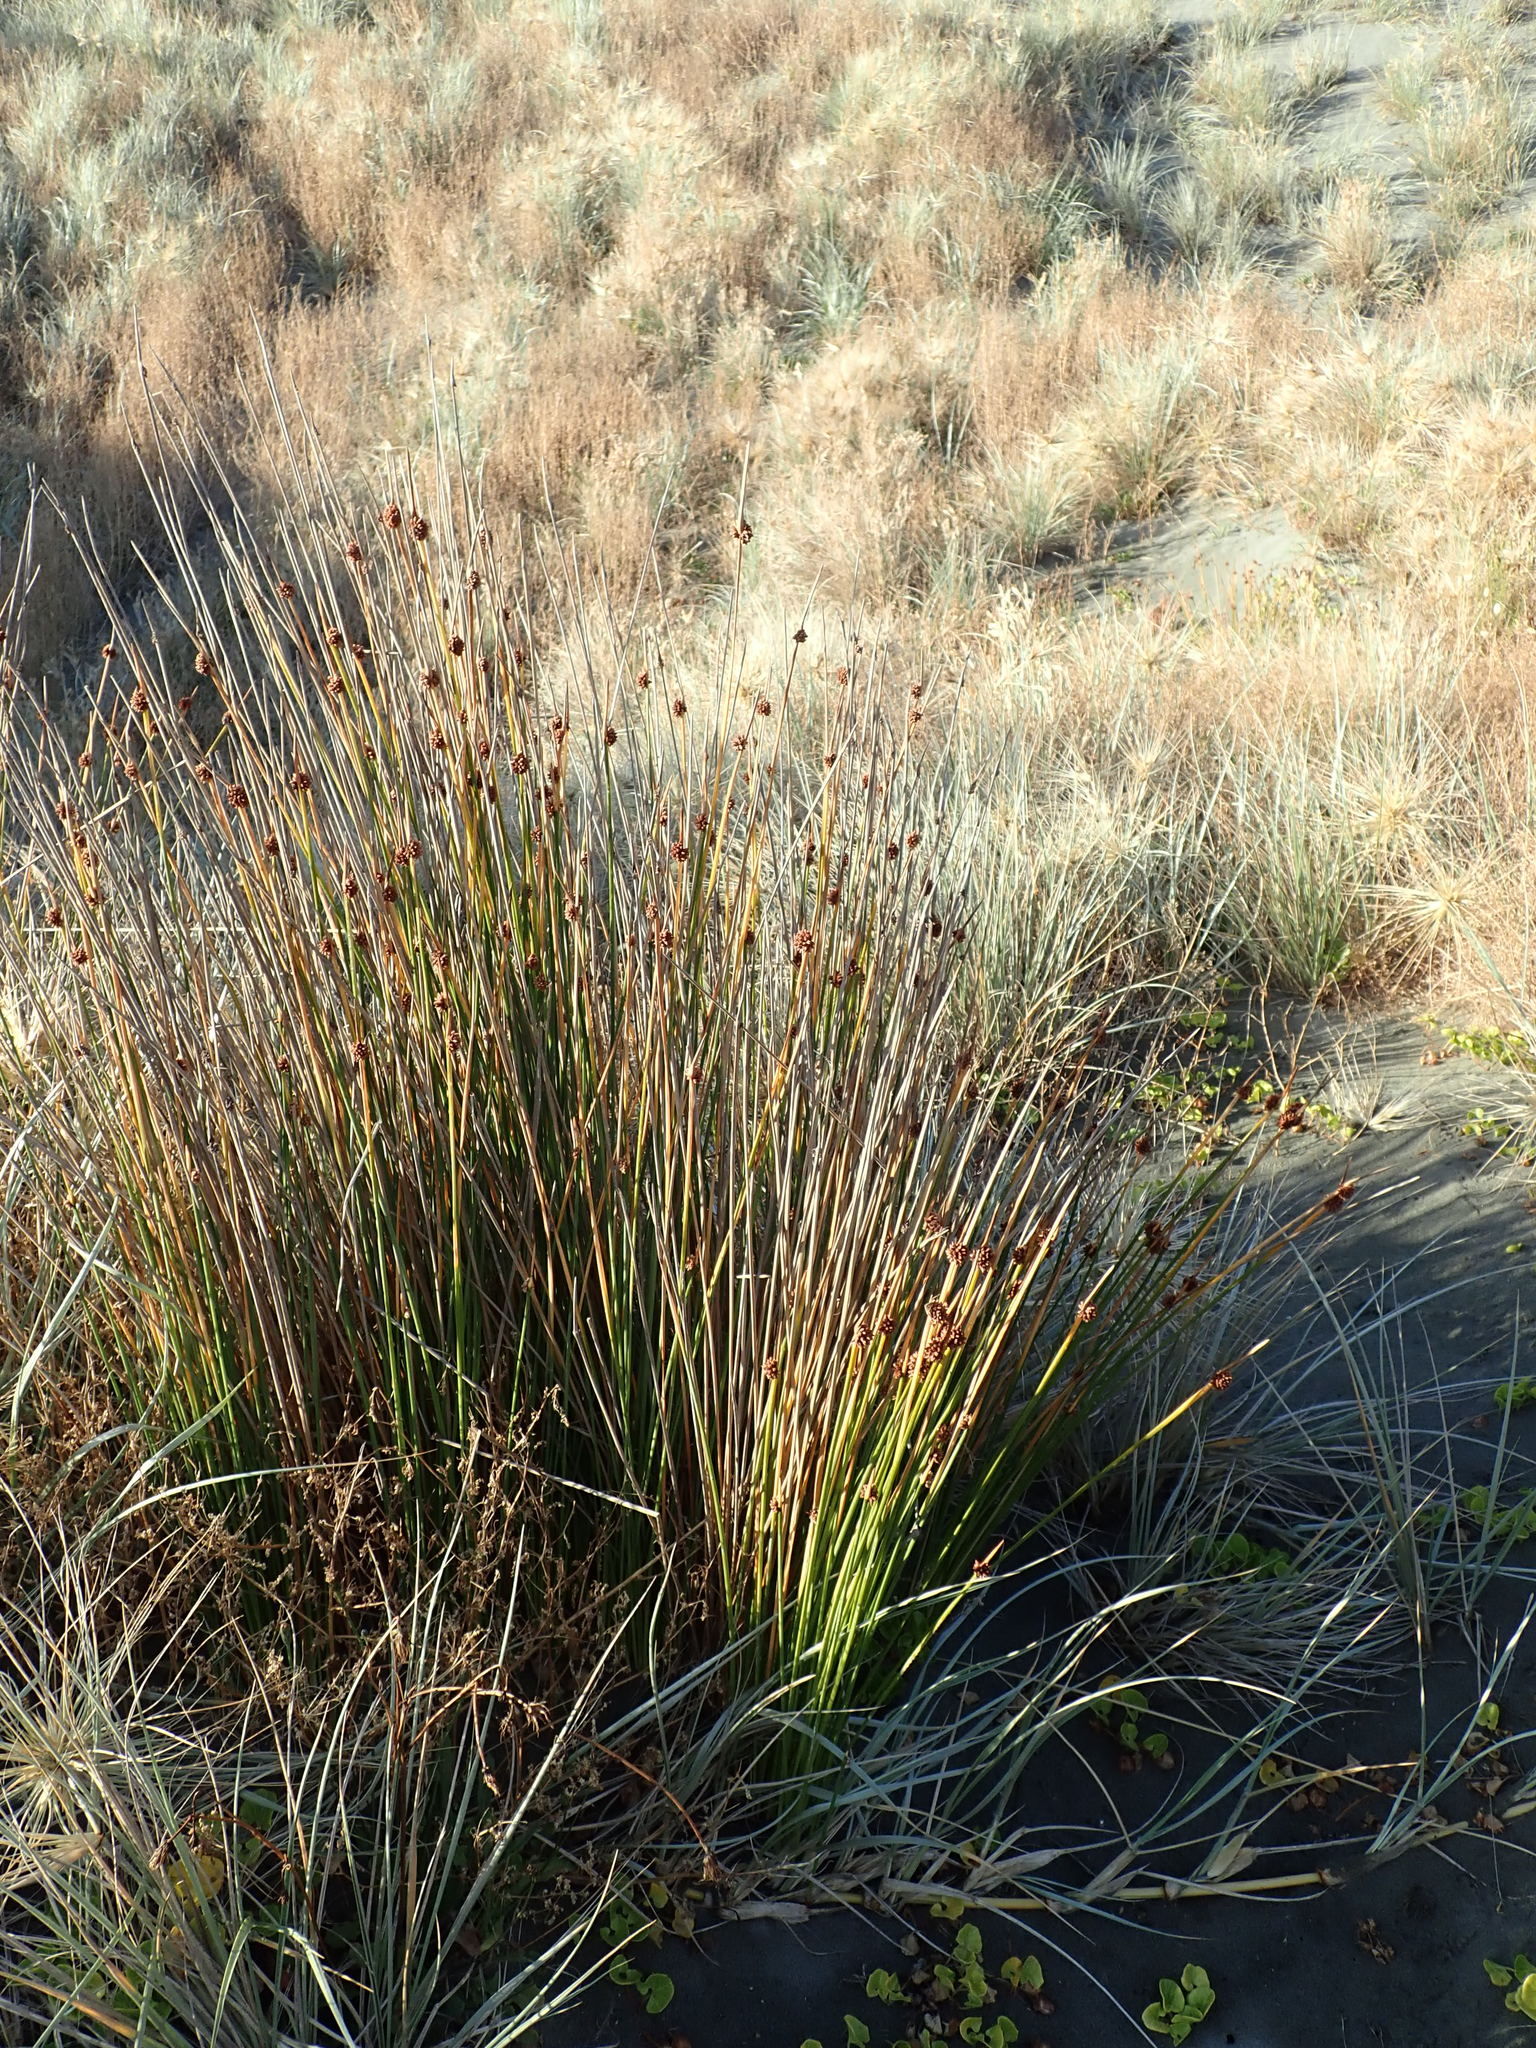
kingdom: Plantae
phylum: Tracheophyta
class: Liliopsida
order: Poales
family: Cyperaceae
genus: Ficinia
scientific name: Ficinia nodosa
